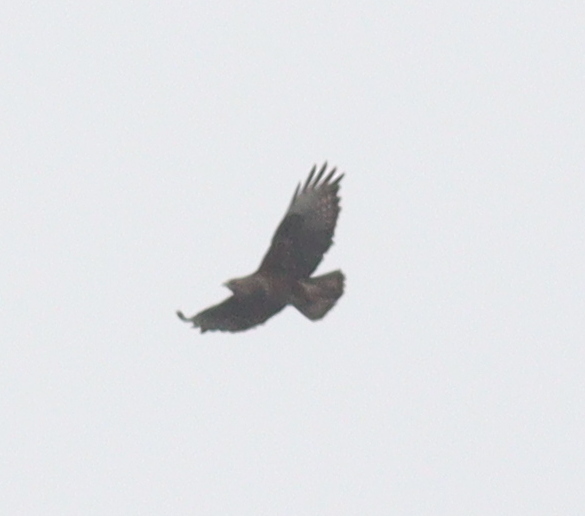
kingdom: Animalia
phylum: Chordata
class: Aves
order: Accipitriformes
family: Accipitridae
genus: Buteo
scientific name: Buteo buteo
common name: Common buzzard
